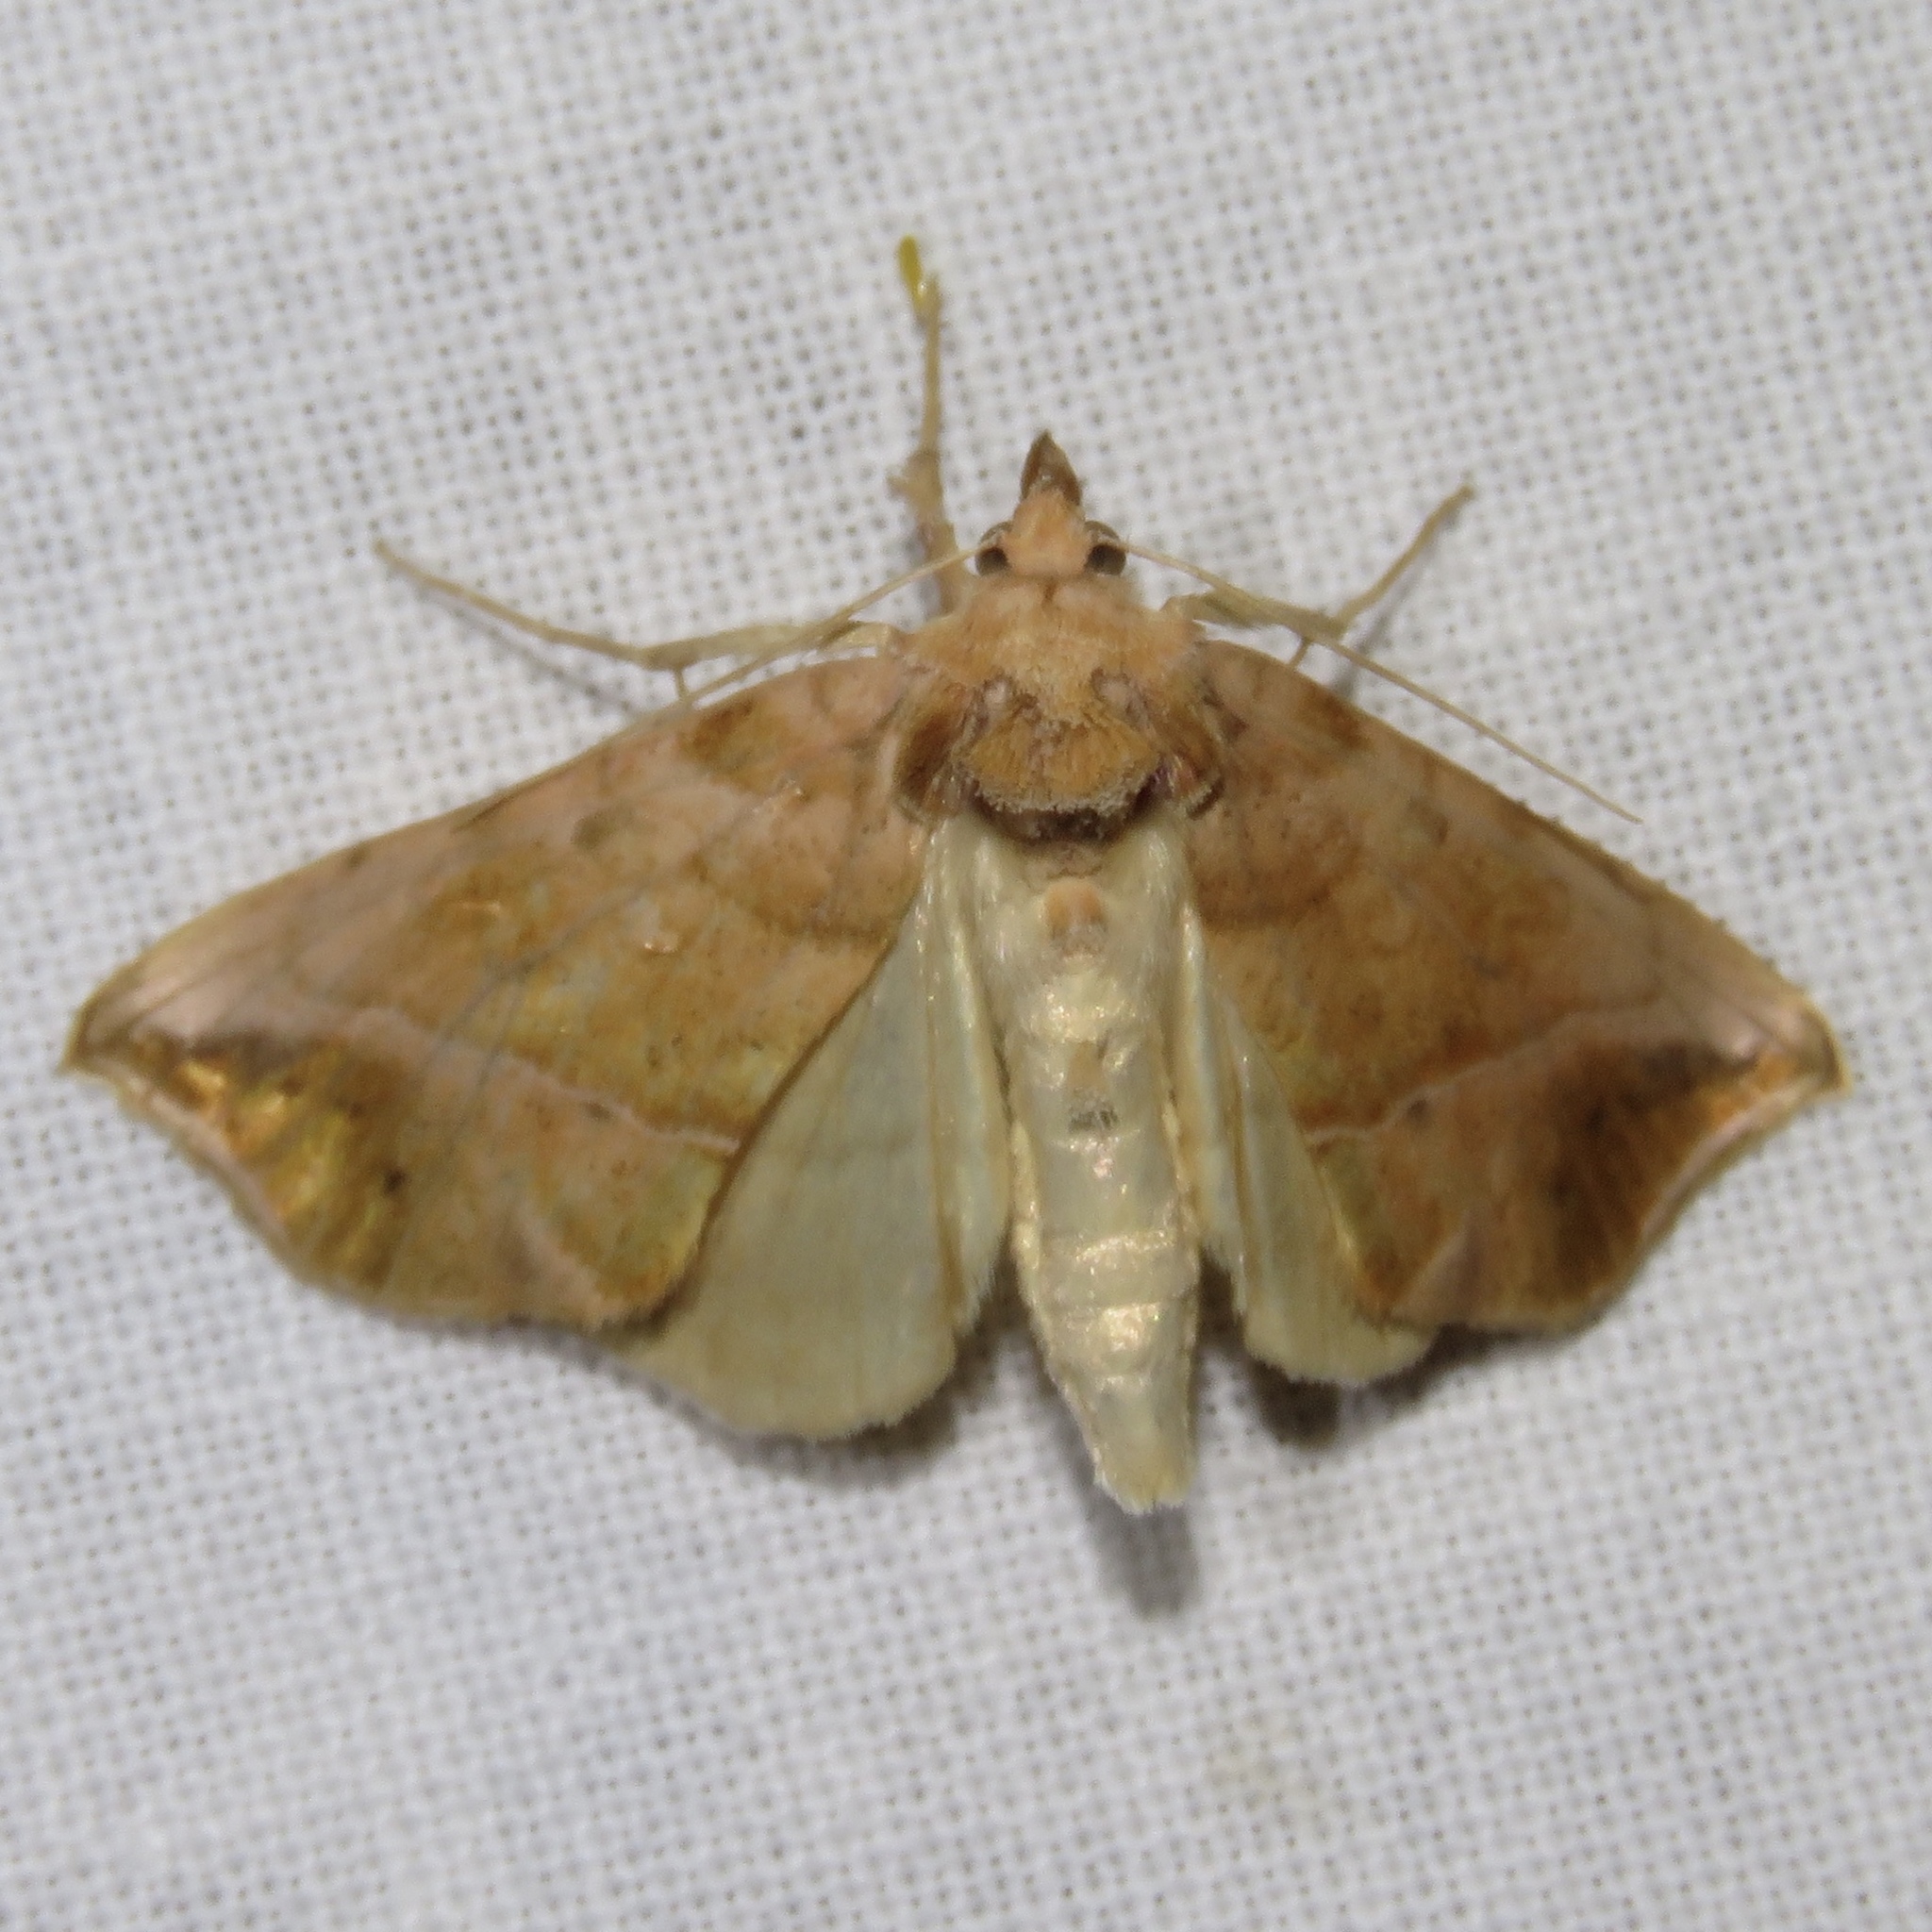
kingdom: Animalia
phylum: Arthropoda
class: Insecta
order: Lepidoptera
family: Noctuidae
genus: Pseudeva
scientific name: Pseudeva purpurigera
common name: Straight-lined looper moth
